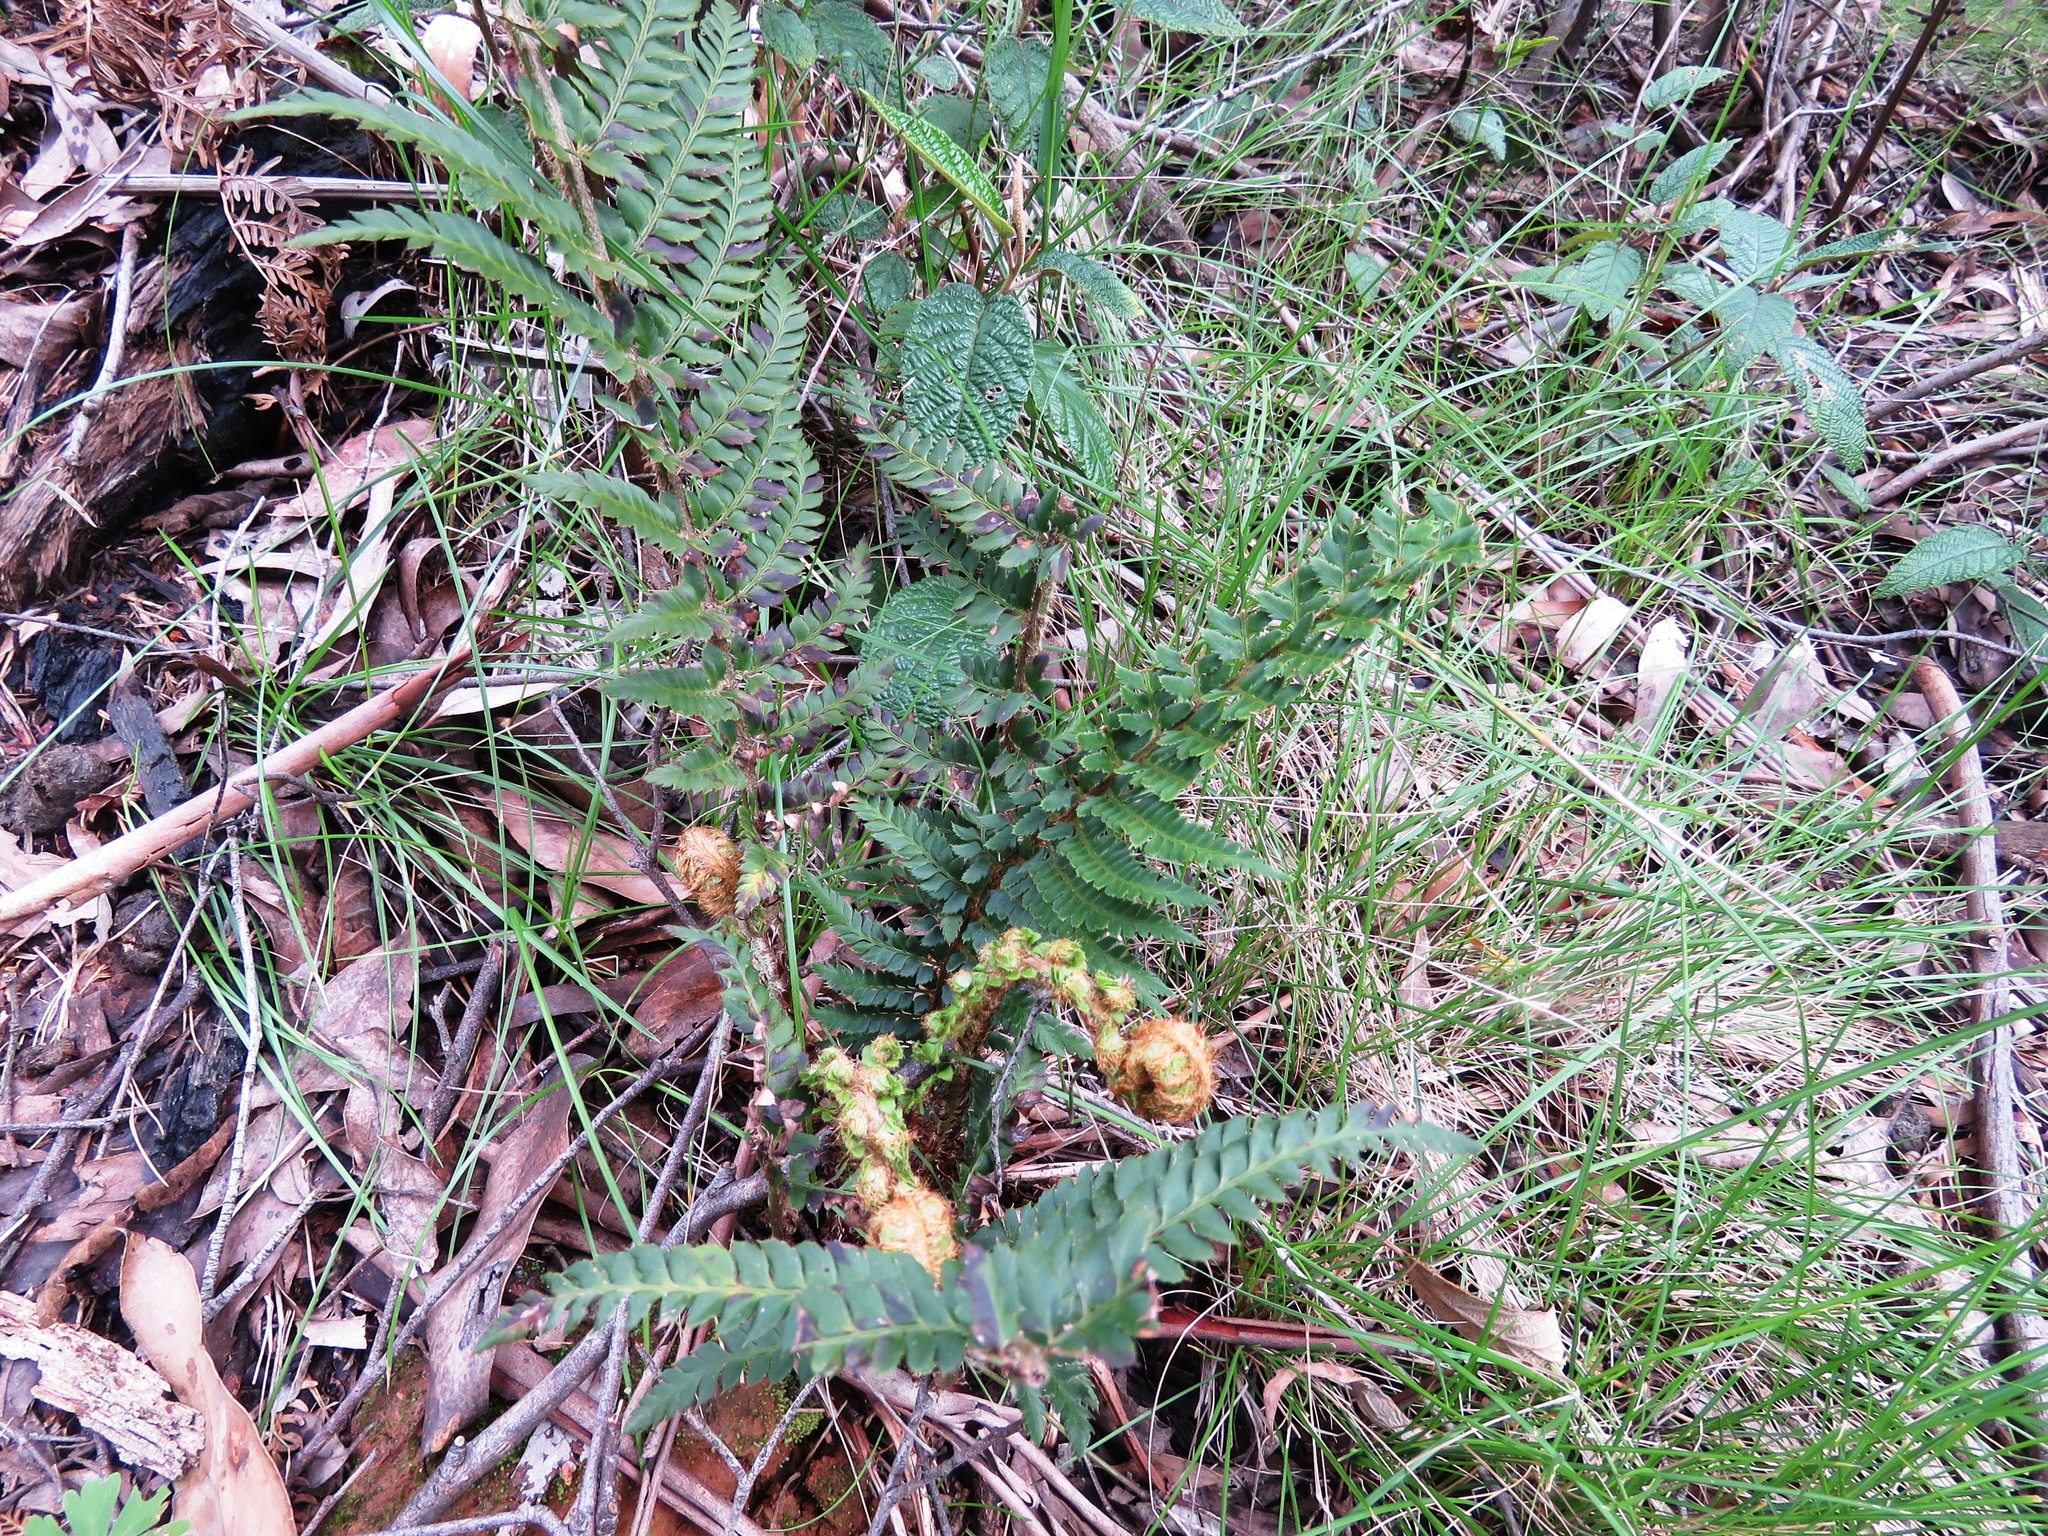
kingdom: Plantae
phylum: Tracheophyta
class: Polypodiopsida
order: Polypodiales
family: Dryopteridaceae
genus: Polystichum
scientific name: Polystichum proliferum
